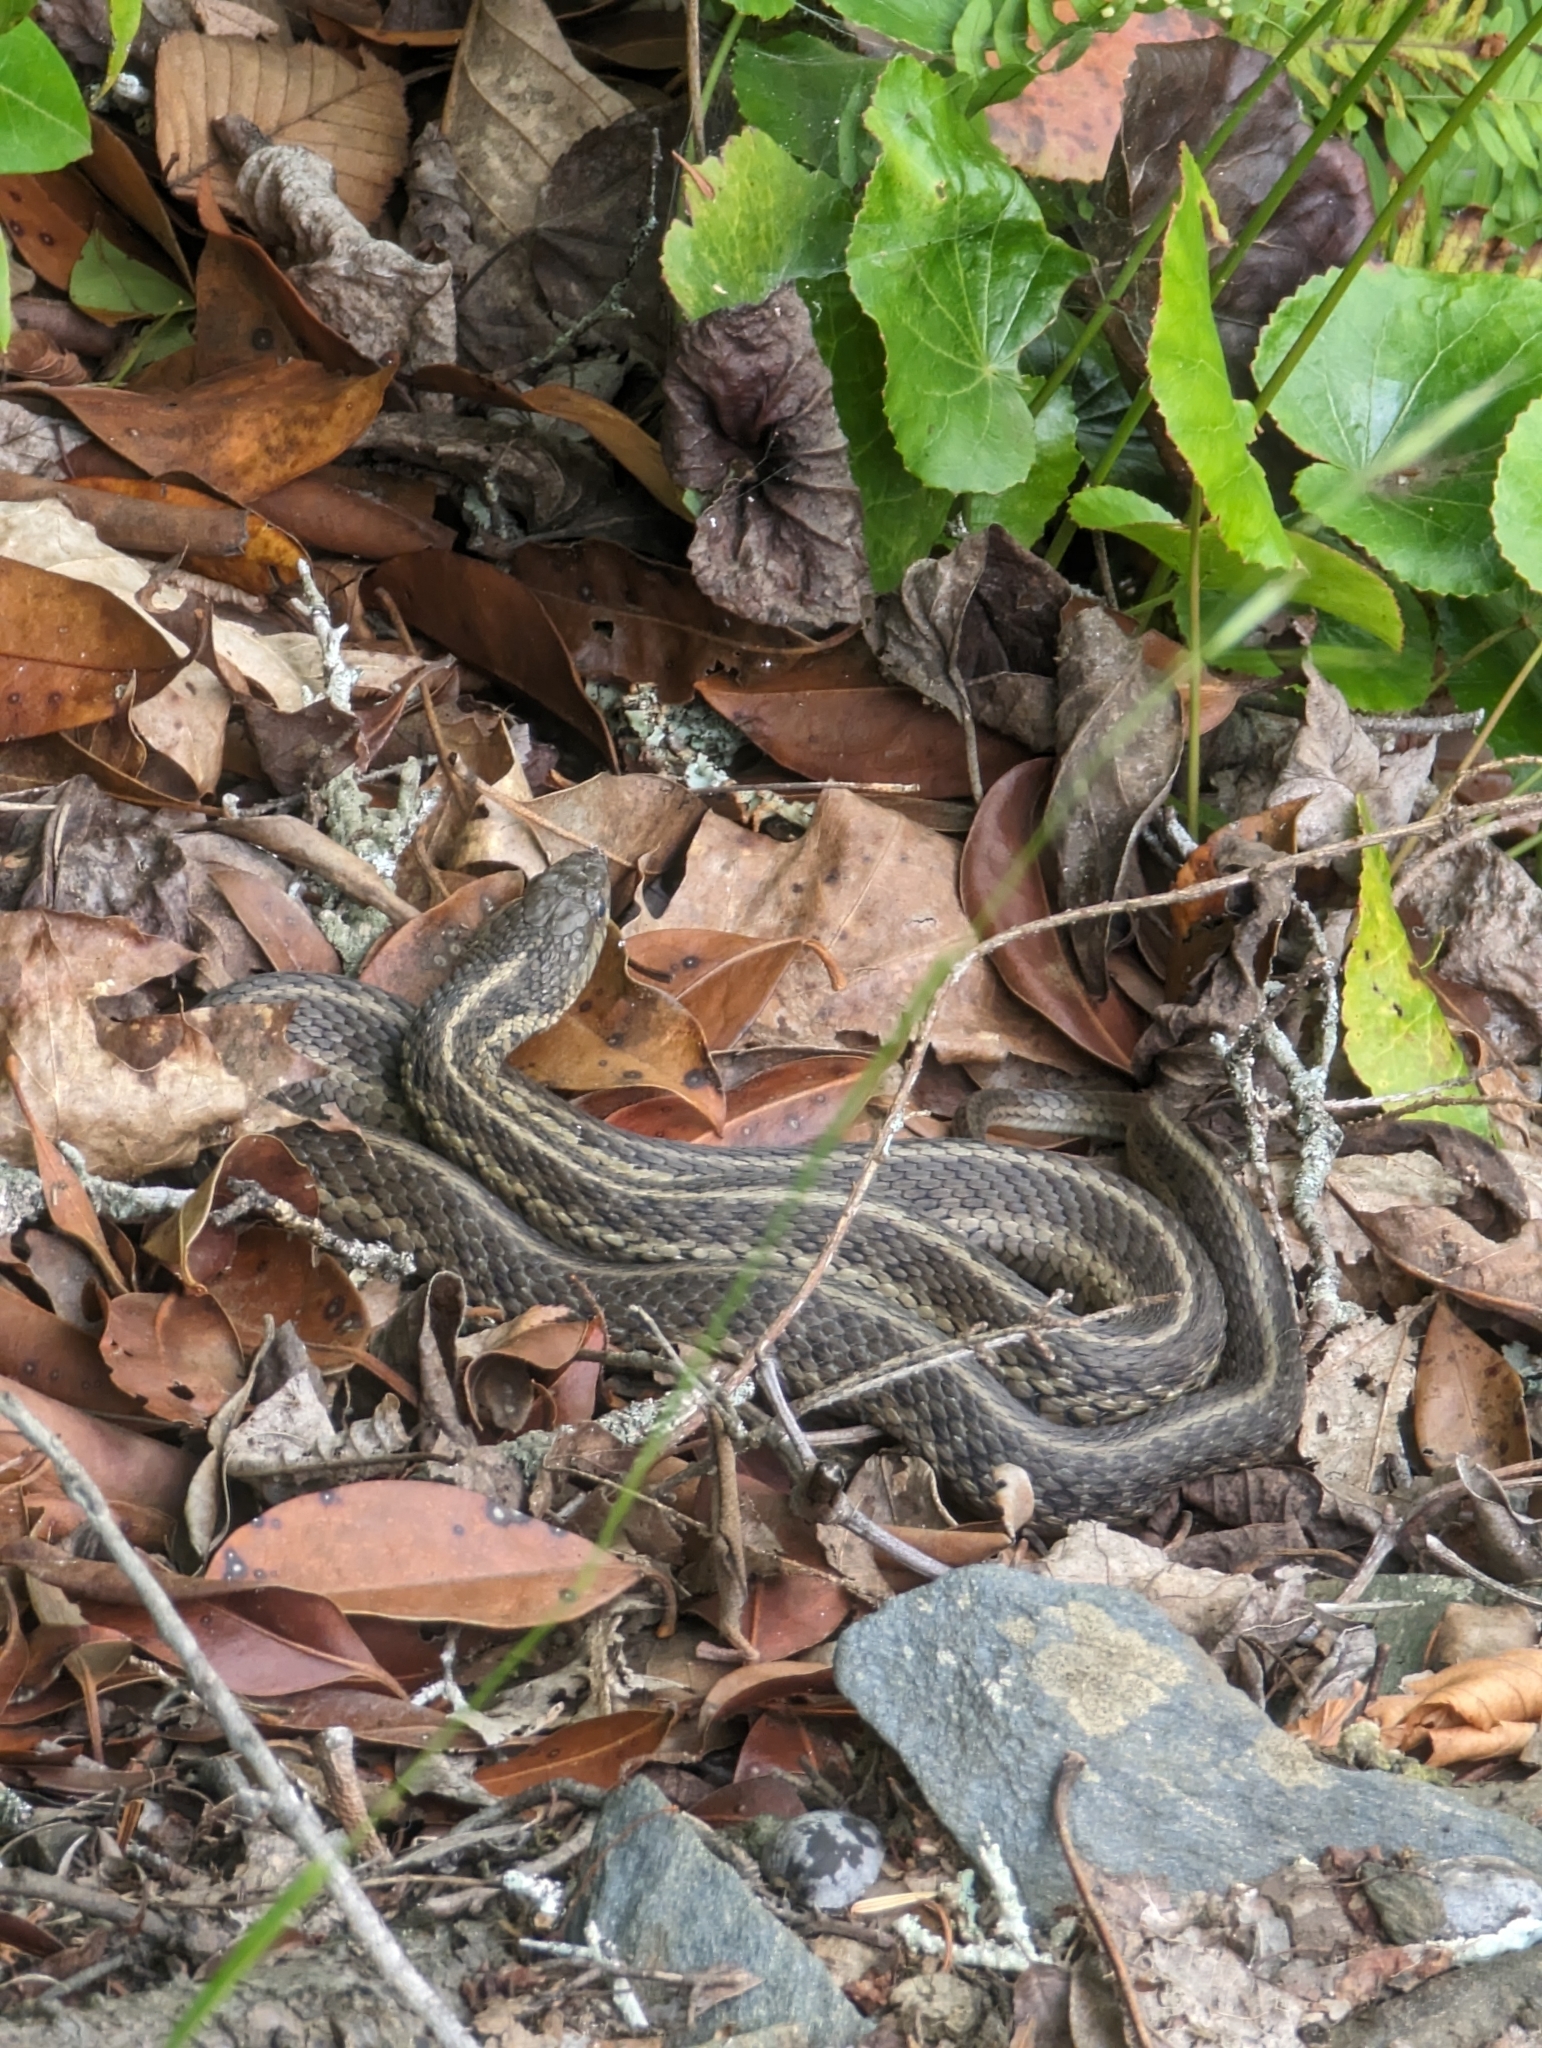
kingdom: Animalia
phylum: Chordata
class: Squamata
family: Colubridae
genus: Thamnophis
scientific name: Thamnophis sirtalis
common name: Common garter snake
